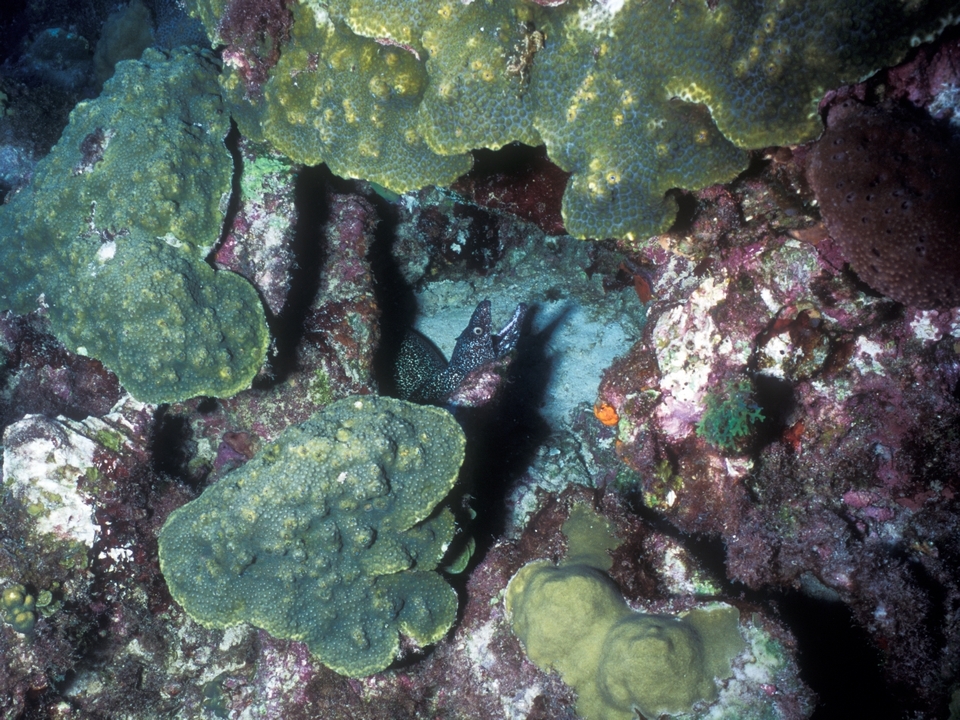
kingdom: Animalia
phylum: Chordata
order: Anguilliformes
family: Muraenidae
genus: Gymnothorax
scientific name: Gymnothorax moringa
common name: Spotted moray
